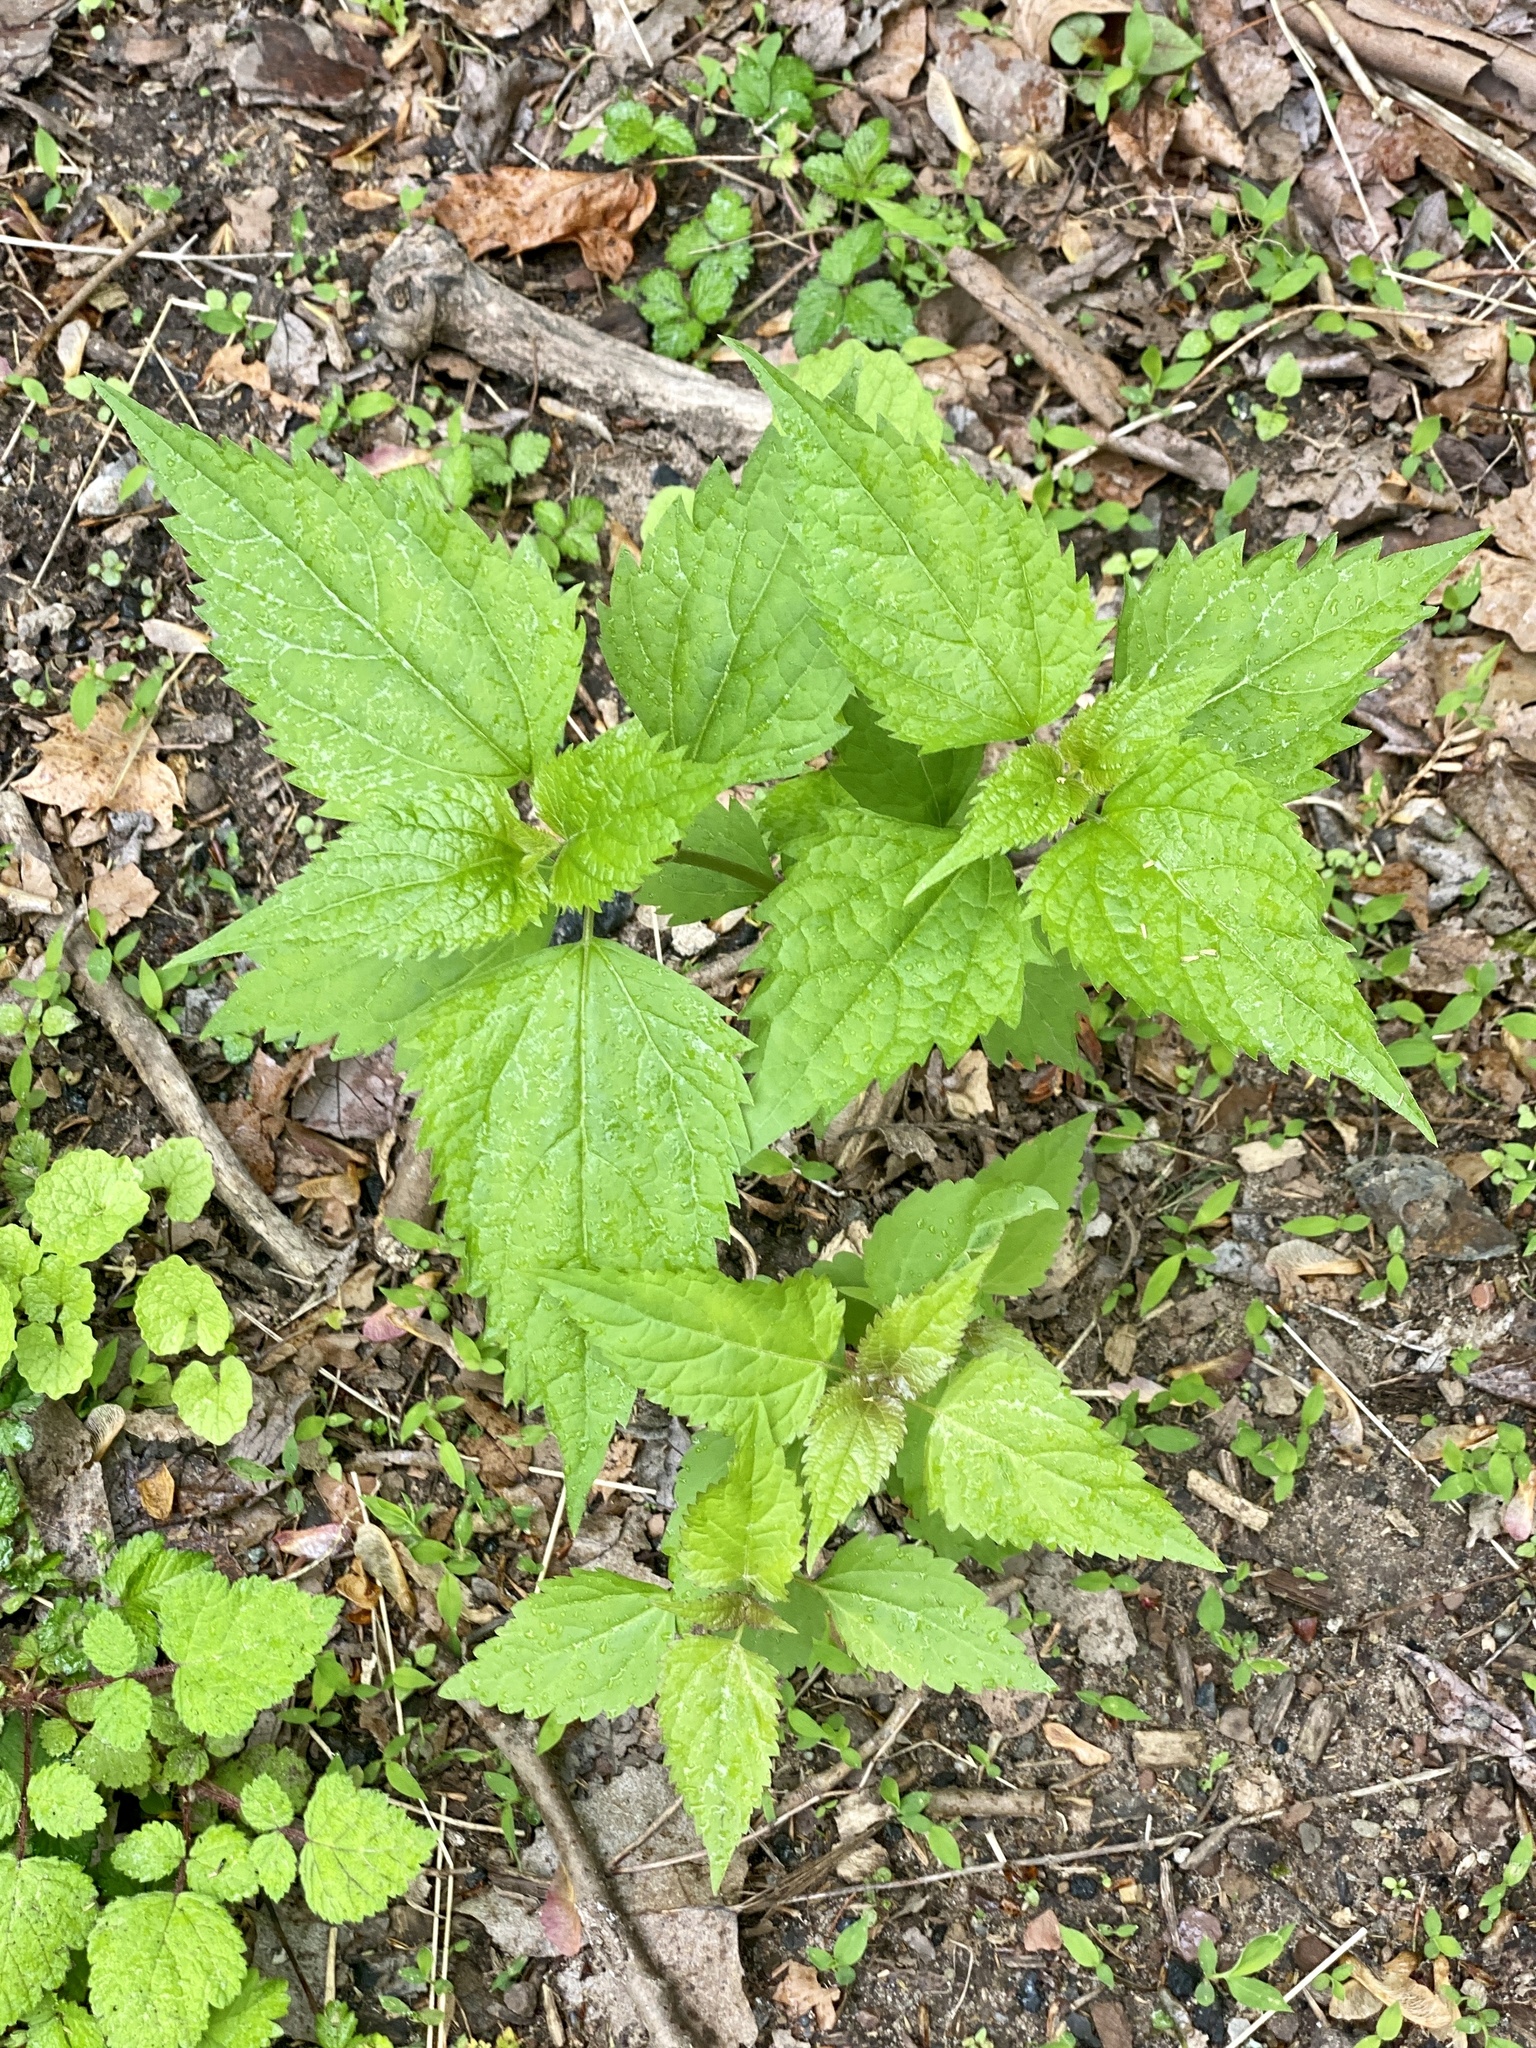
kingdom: Plantae
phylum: Tracheophyta
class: Magnoliopsida
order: Asterales
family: Asteraceae
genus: Ageratina
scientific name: Ageratina altissima
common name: White snakeroot
